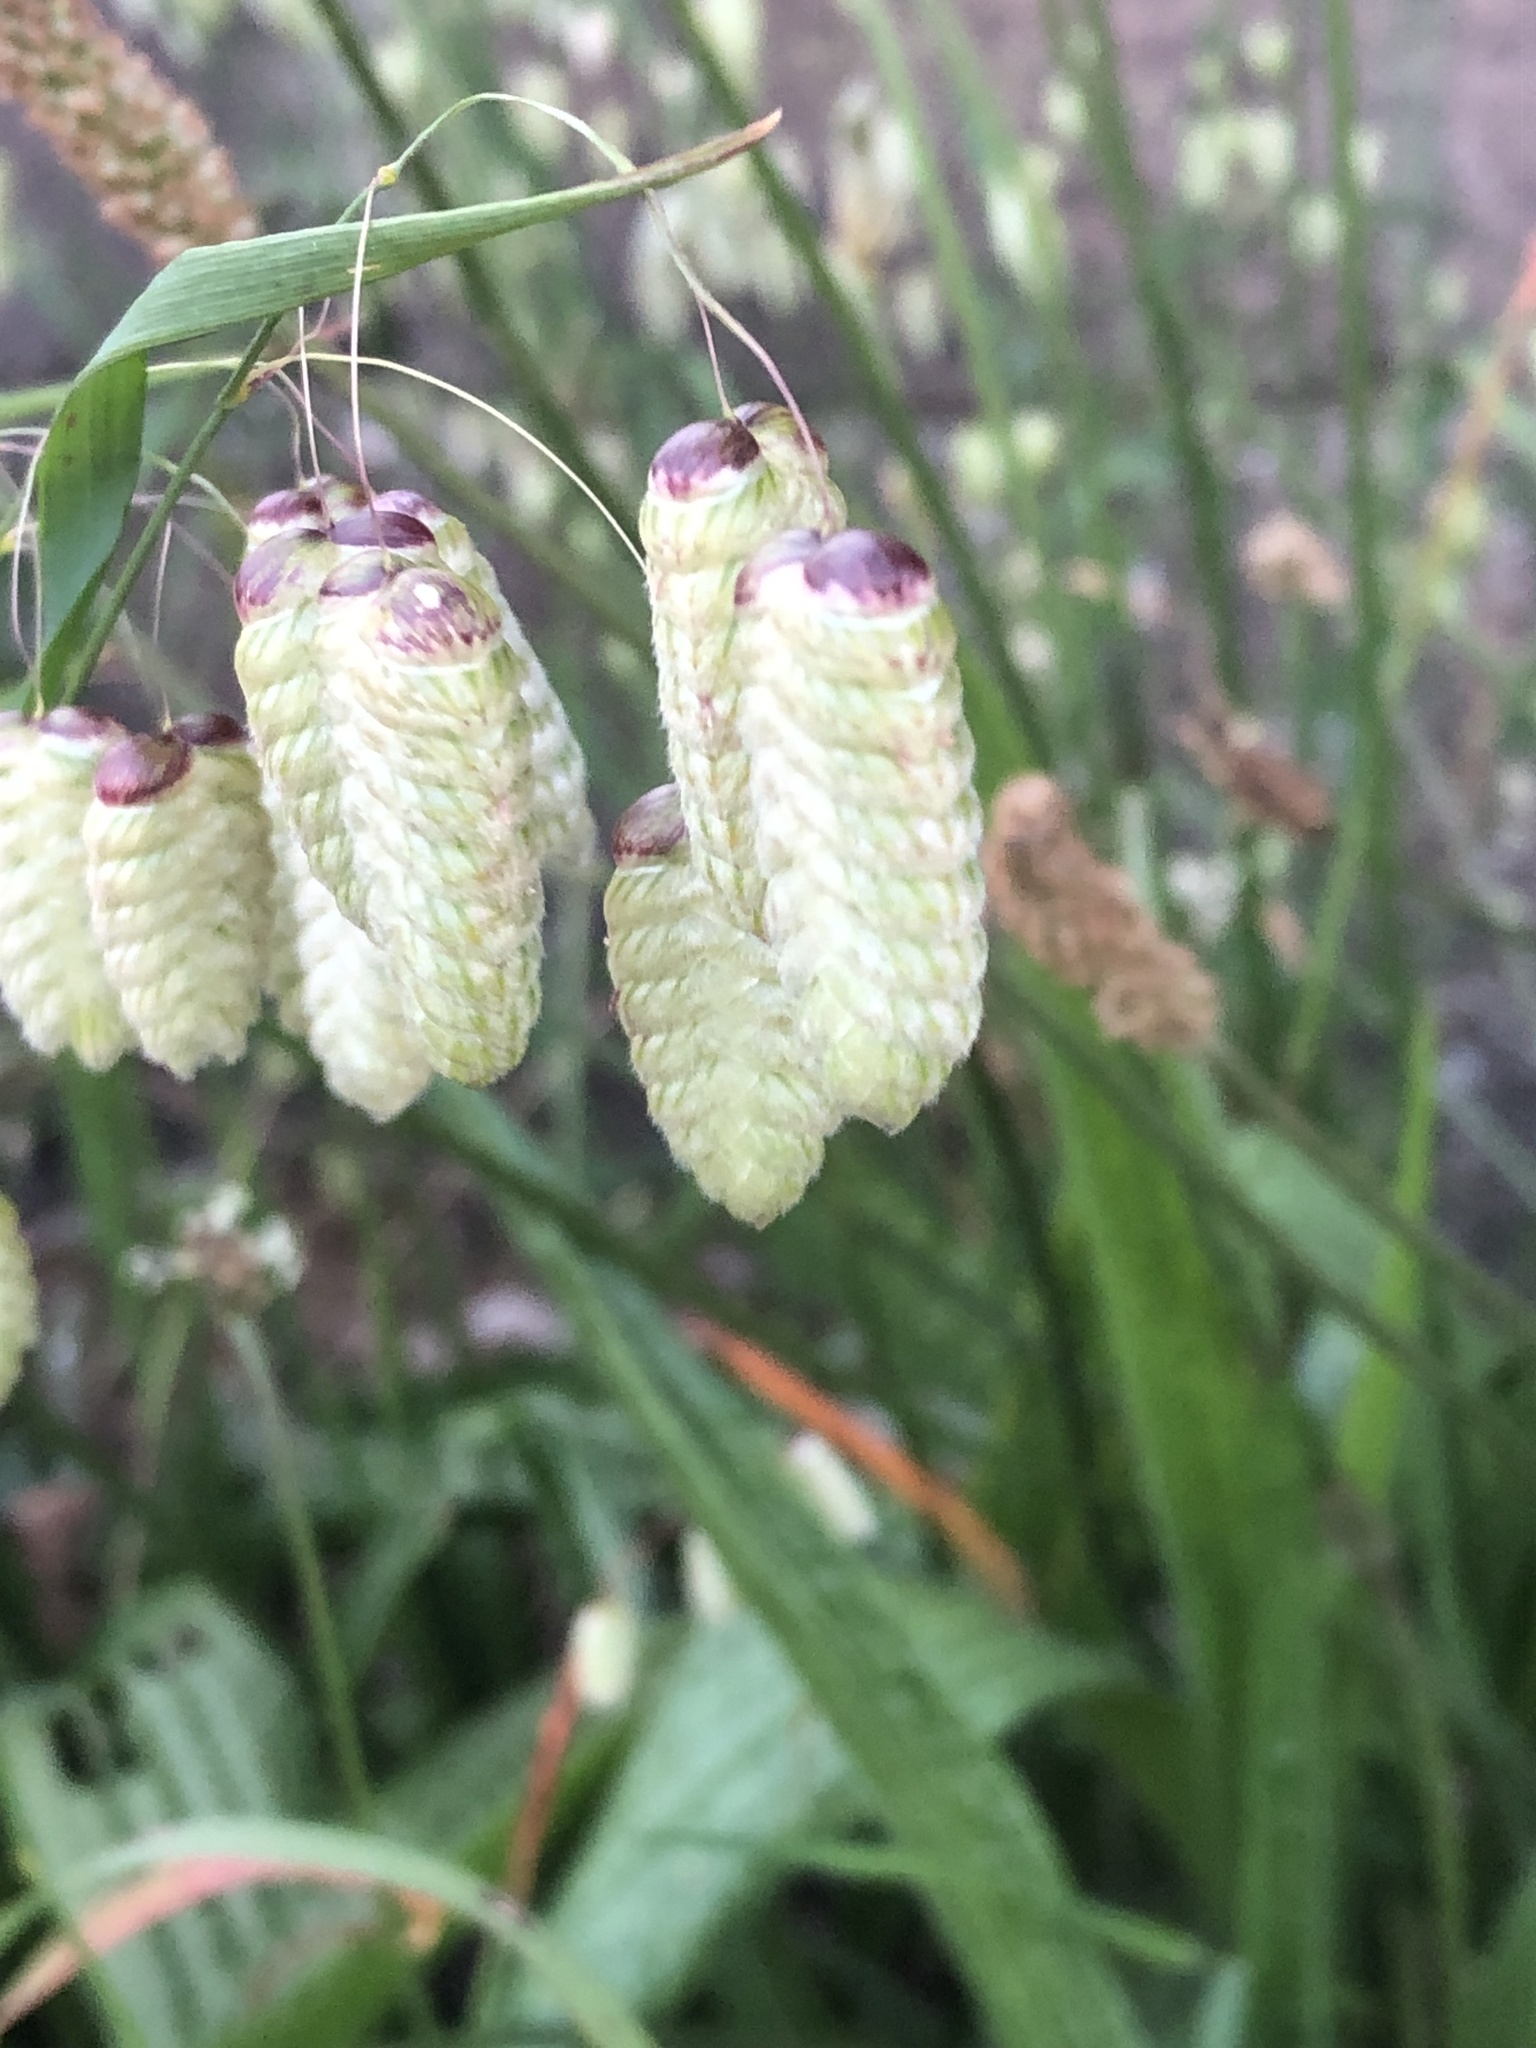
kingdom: Plantae
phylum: Tracheophyta
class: Liliopsida
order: Poales
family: Poaceae
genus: Briza
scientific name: Briza maxima
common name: Big quakinggrass
